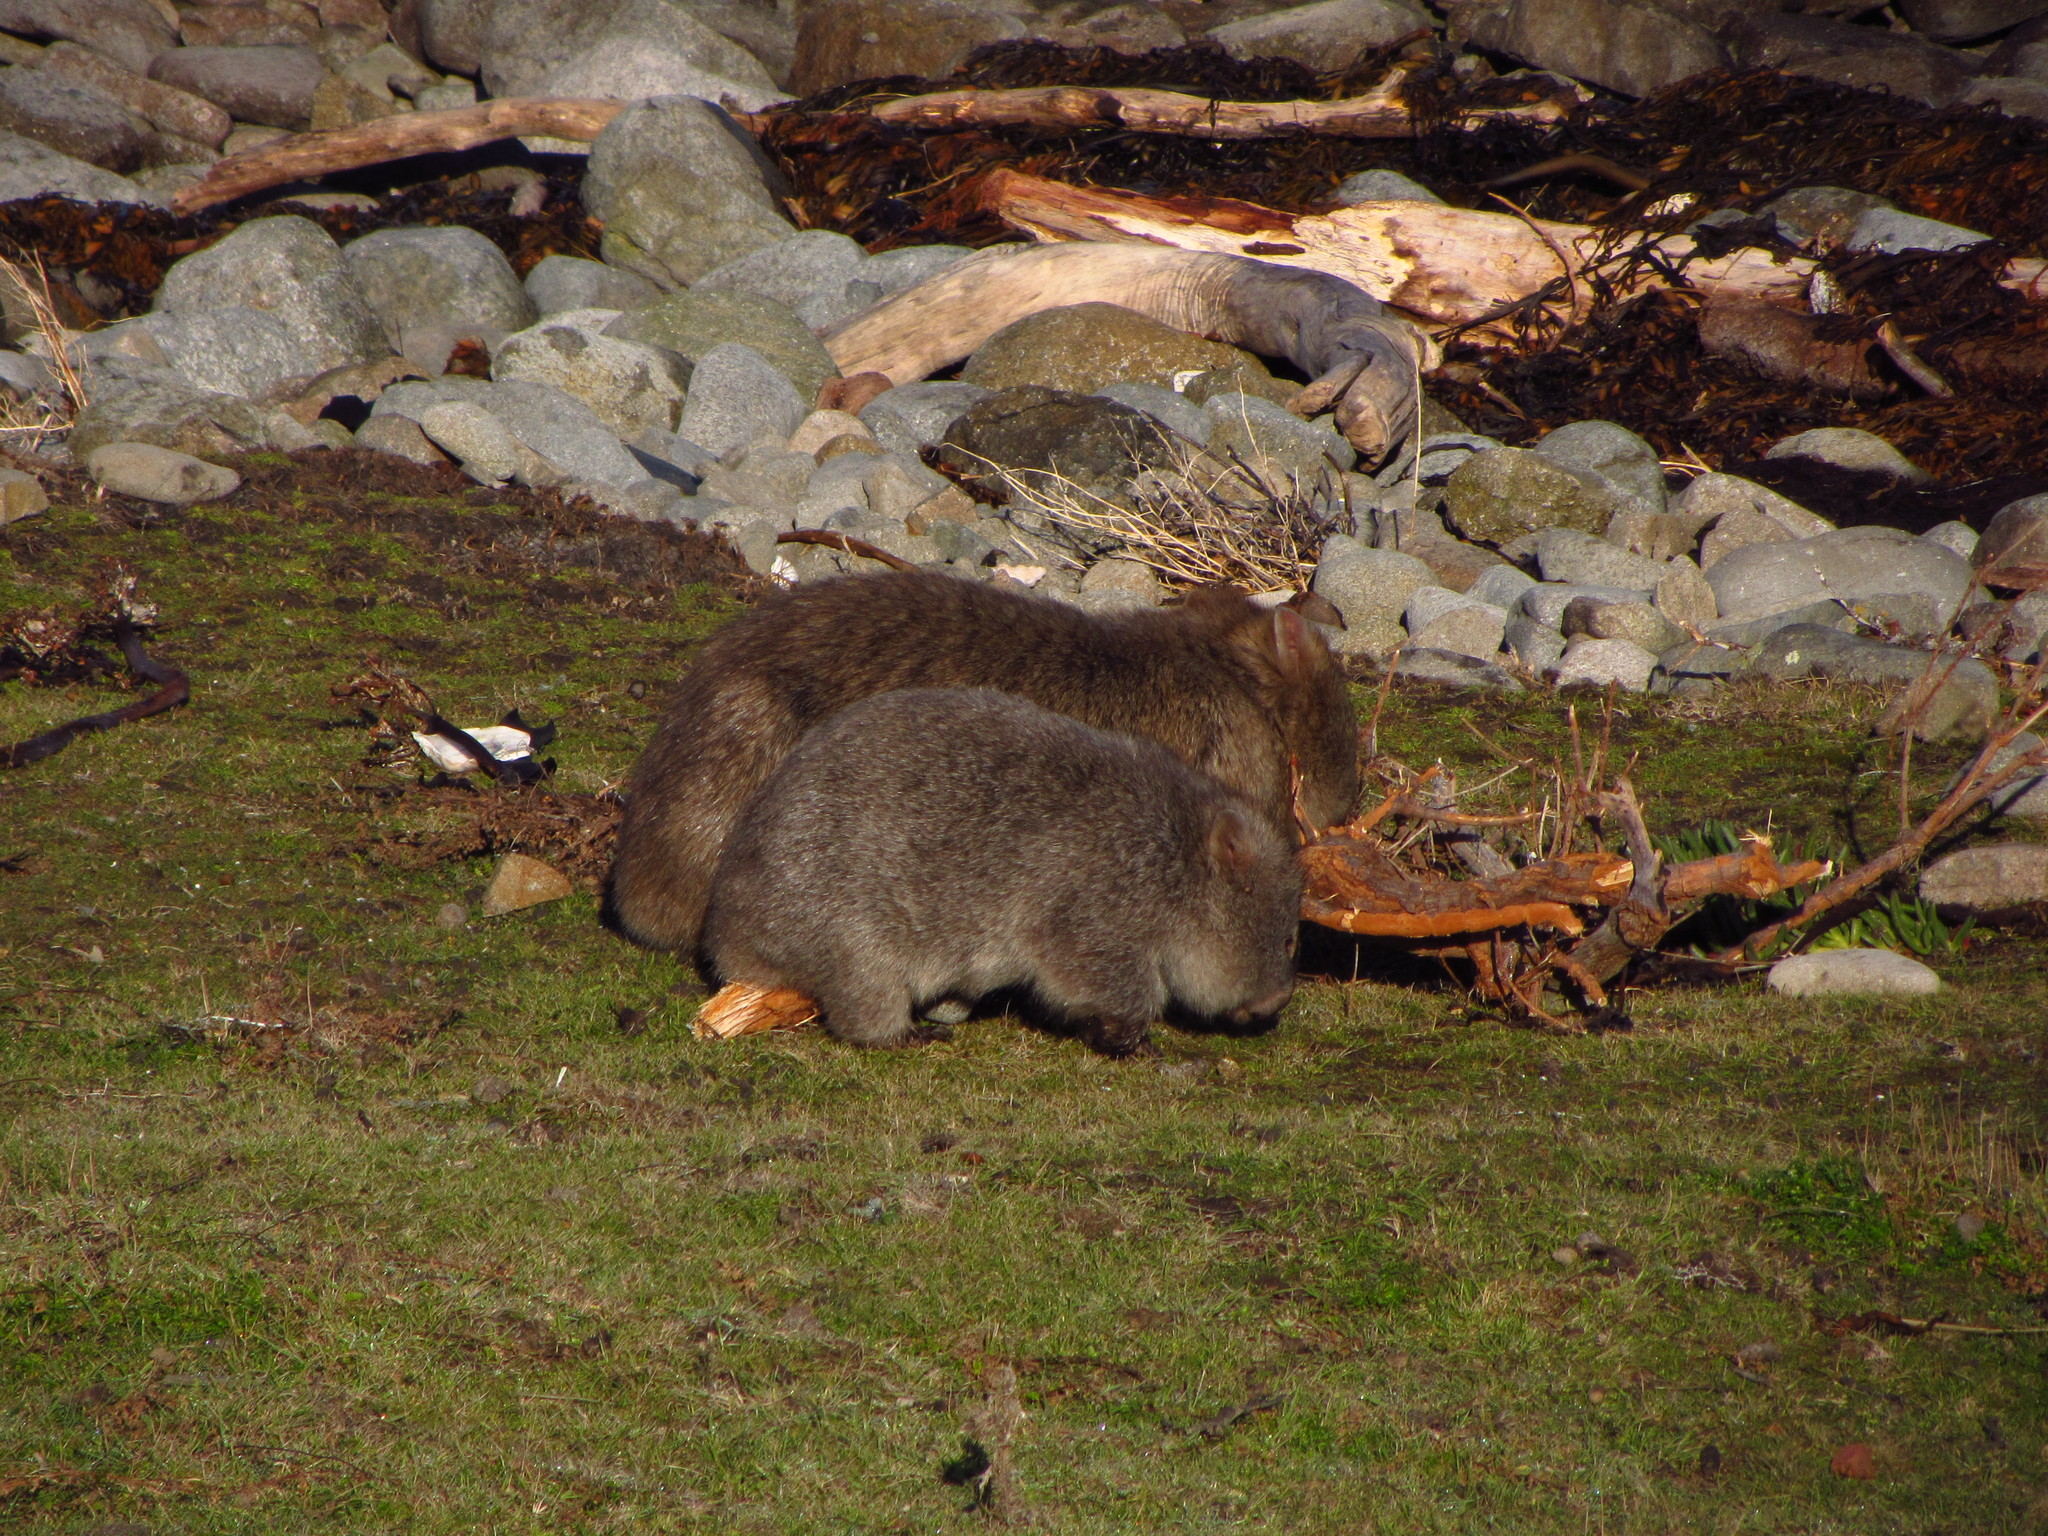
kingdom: Animalia
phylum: Chordata
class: Mammalia
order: Diprotodontia
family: Vombatidae
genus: Vombatus
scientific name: Vombatus ursinus
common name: Common wombat
